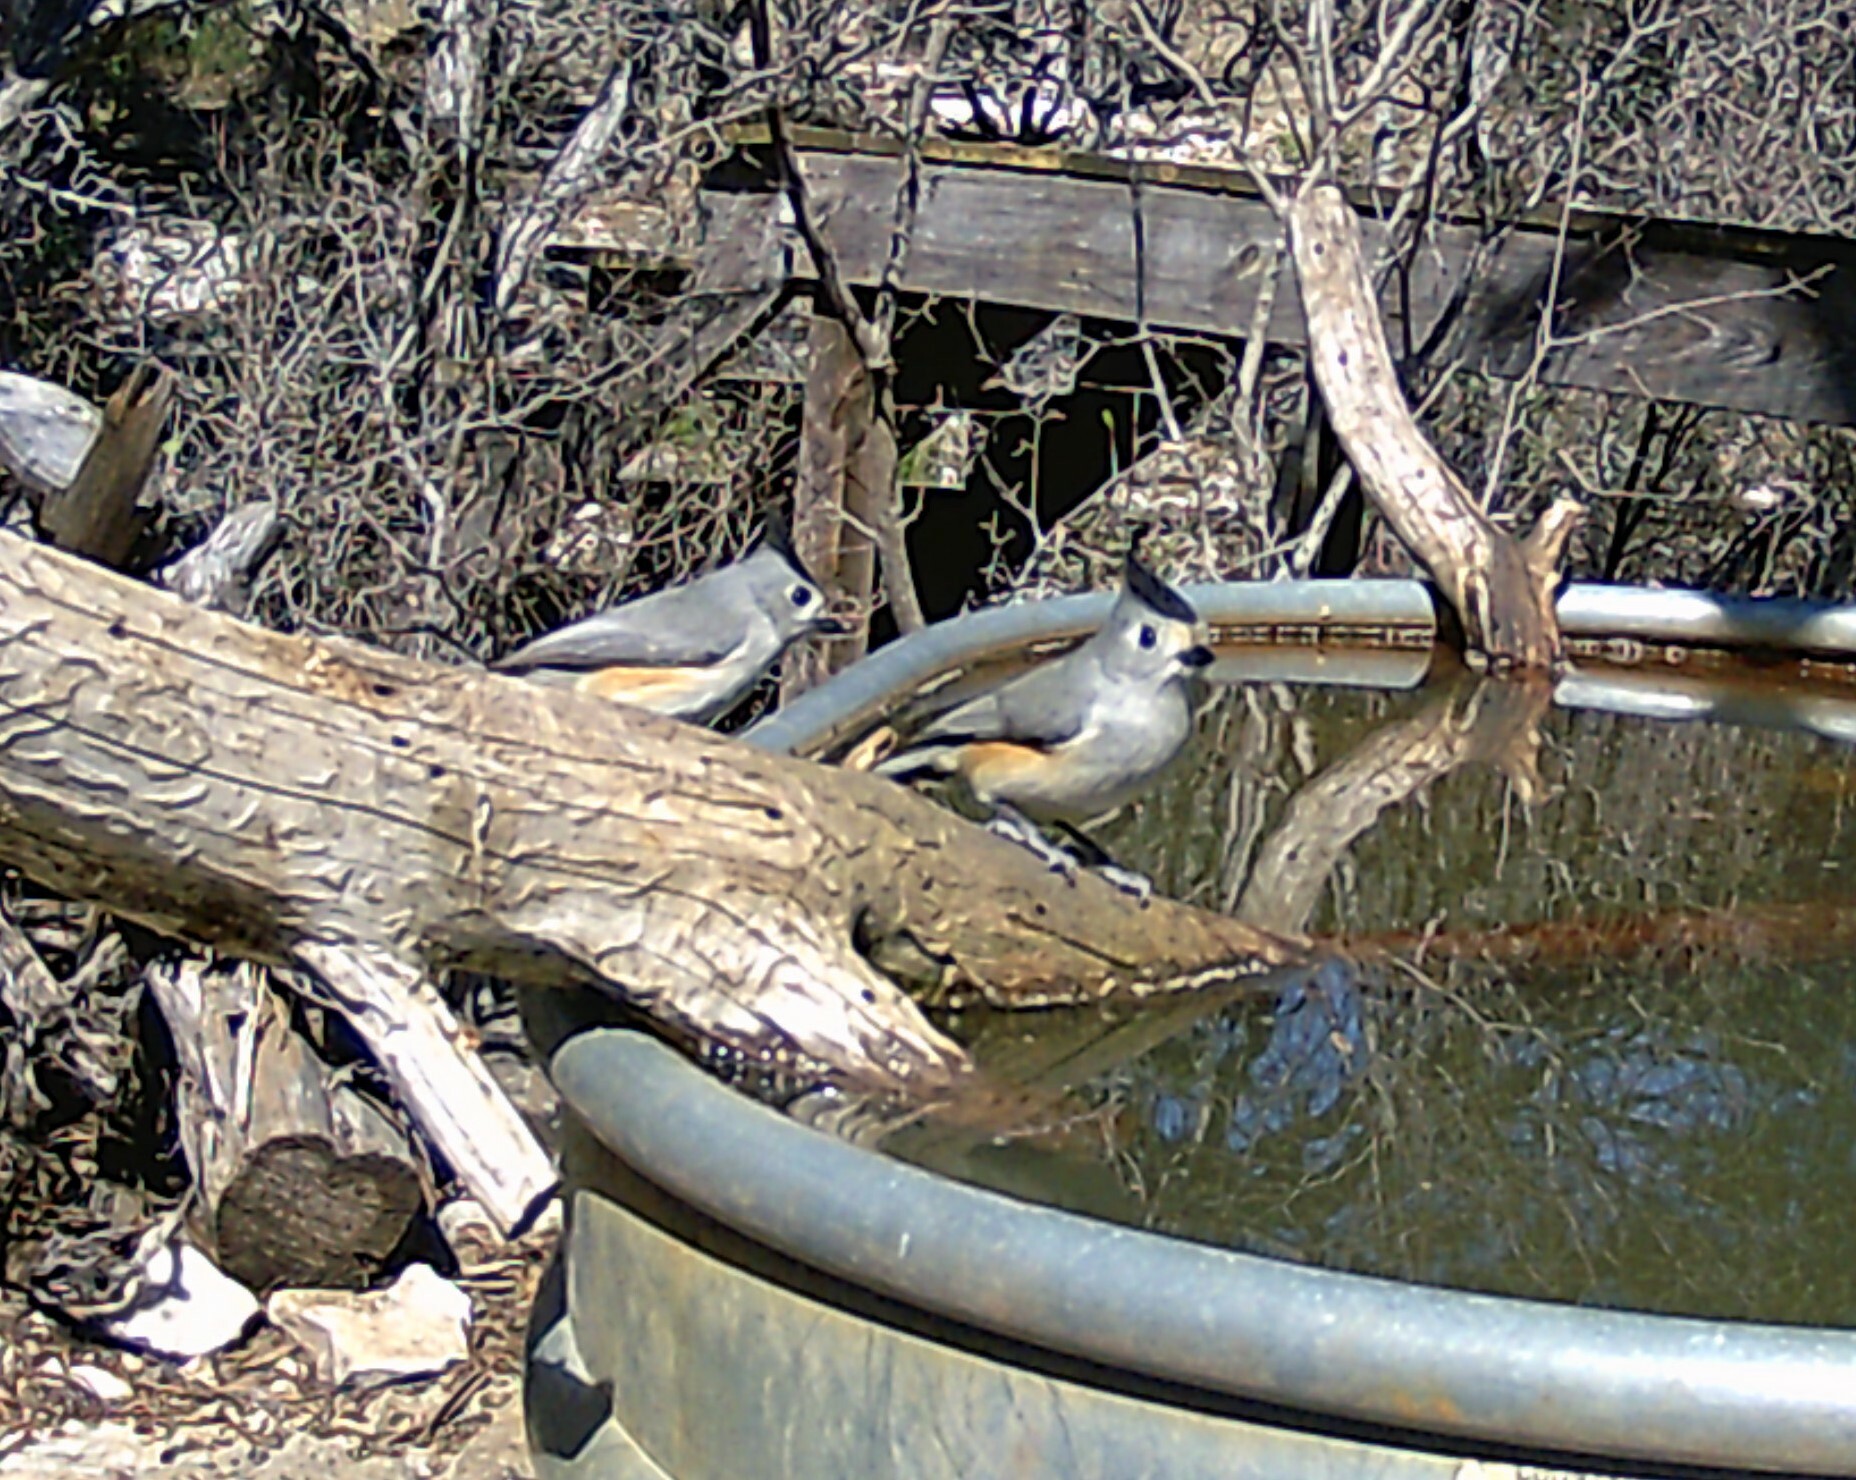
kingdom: Animalia
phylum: Chordata
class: Aves
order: Passeriformes
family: Paridae
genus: Baeolophus
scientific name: Baeolophus atricristatus
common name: Black-crested titmouse
